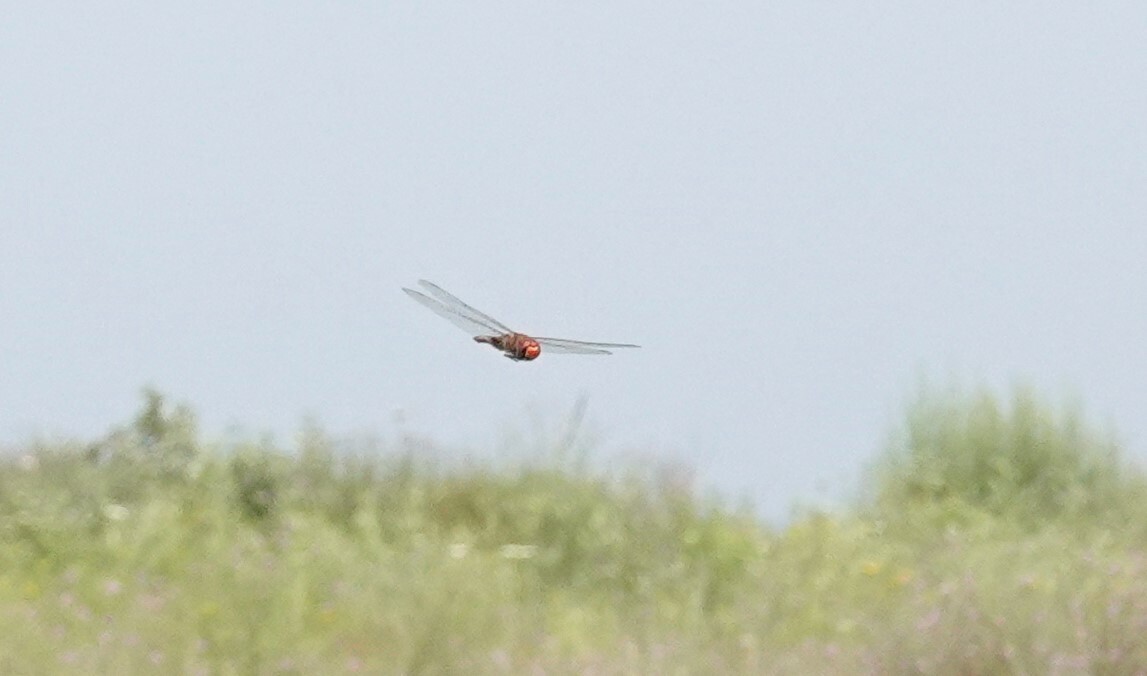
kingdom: Animalia
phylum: Arthropoda
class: Insecta
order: Odonata
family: Libellulidae
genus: Pantala
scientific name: Pantala hymenaea
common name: Spot-winged glider
